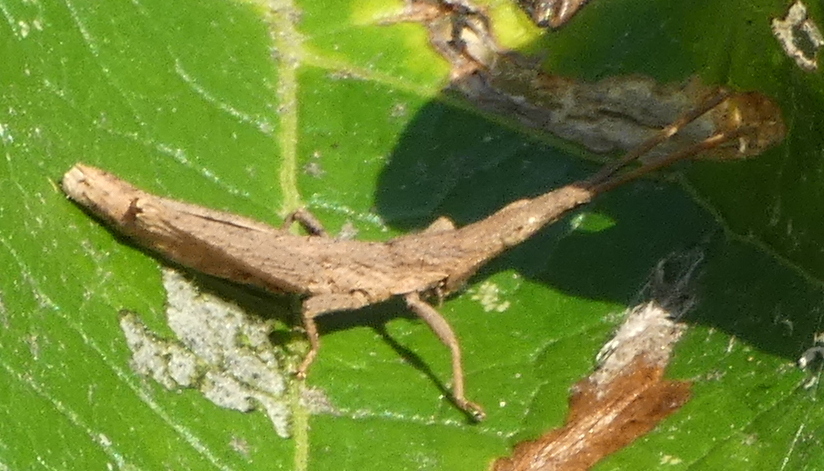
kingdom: Animalia
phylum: Arthropoda
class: Insecta
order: Orthoptera
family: Pyrgomorphidae
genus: Algete
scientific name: Algete brunneri
